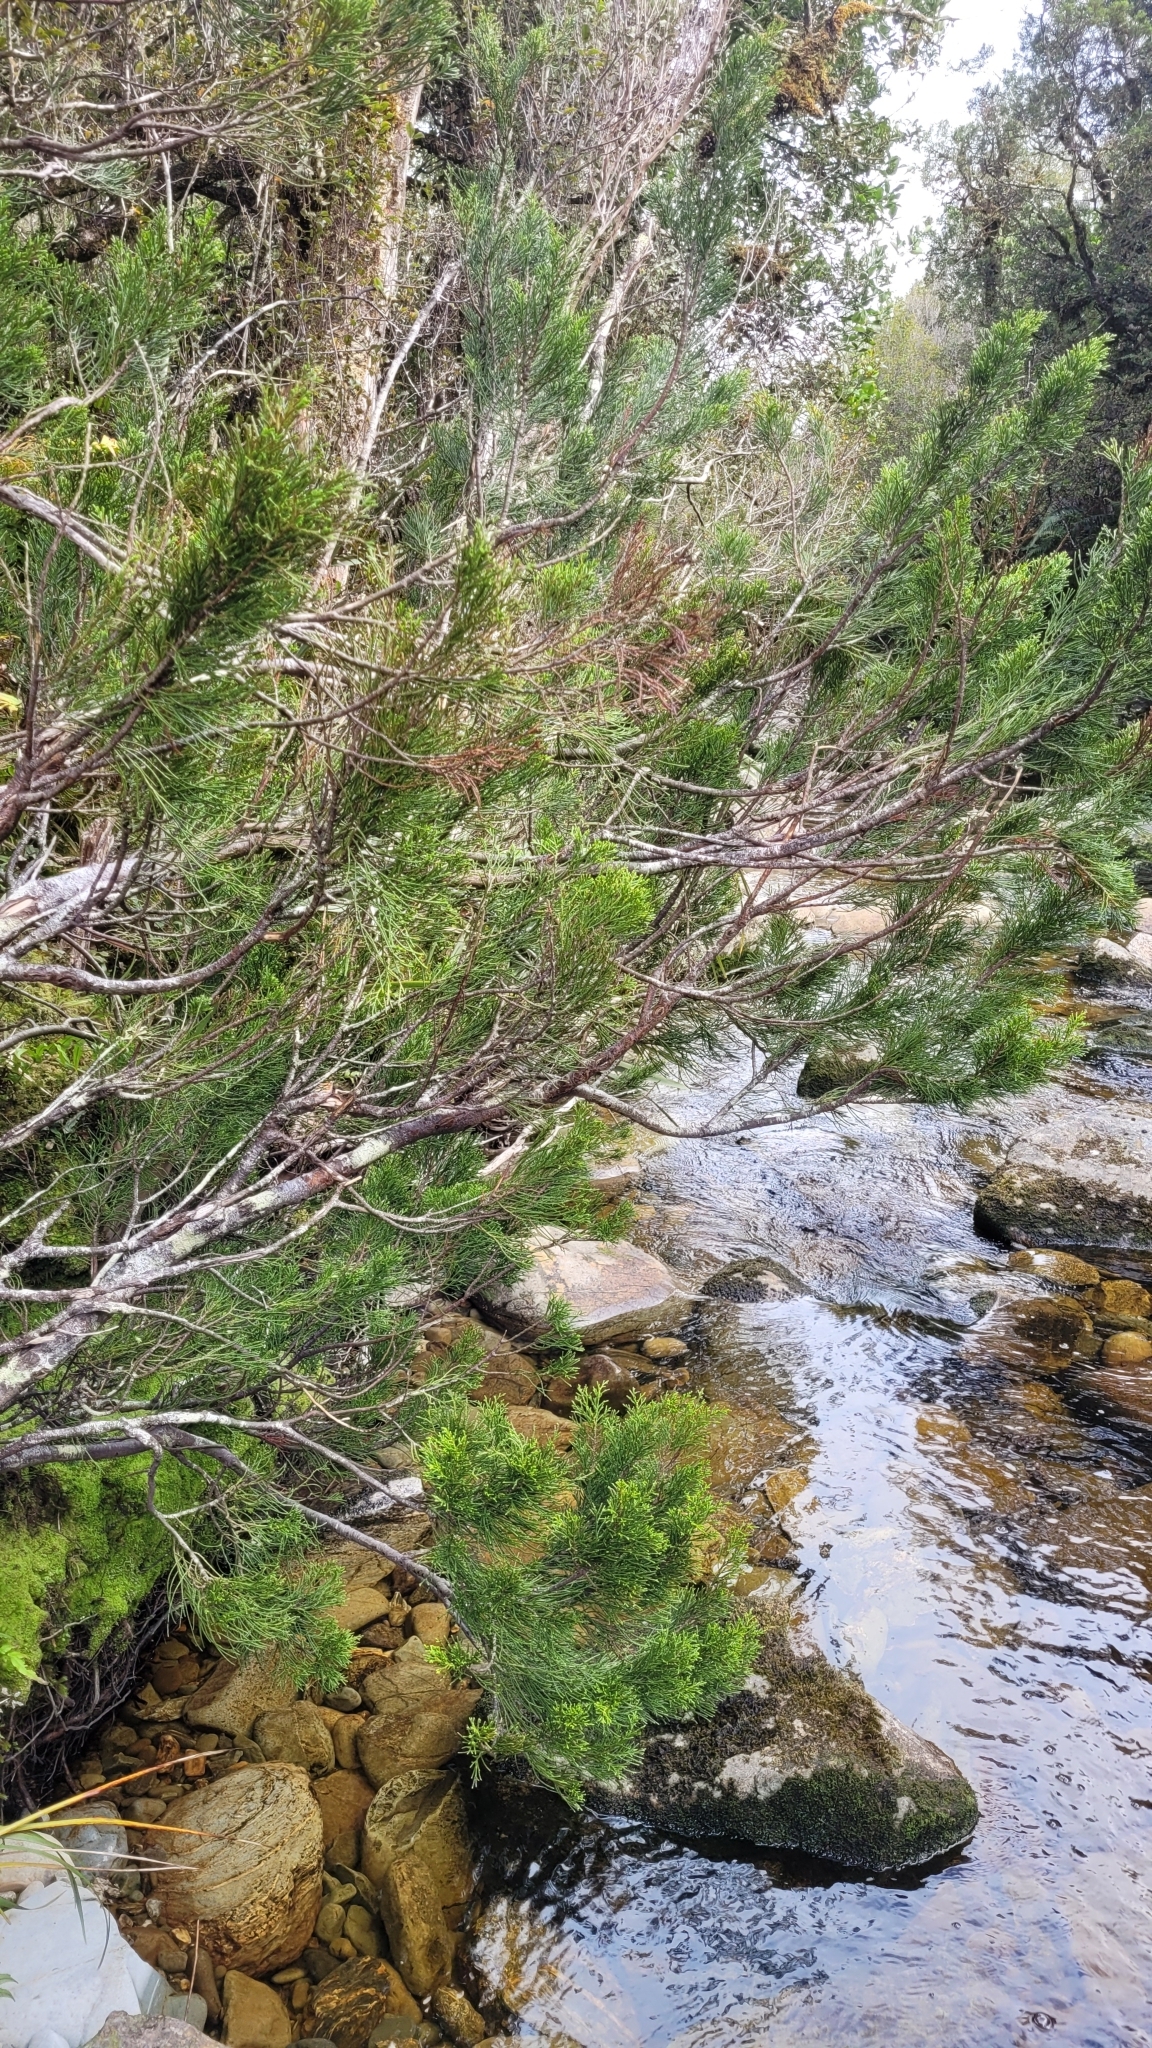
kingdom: Plantae
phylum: Tracheophyta
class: Pinopsida
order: Pinales
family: Podocarpaceae
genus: Halocarpus
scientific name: Halocarpus biformis
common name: Alpine tarwood
